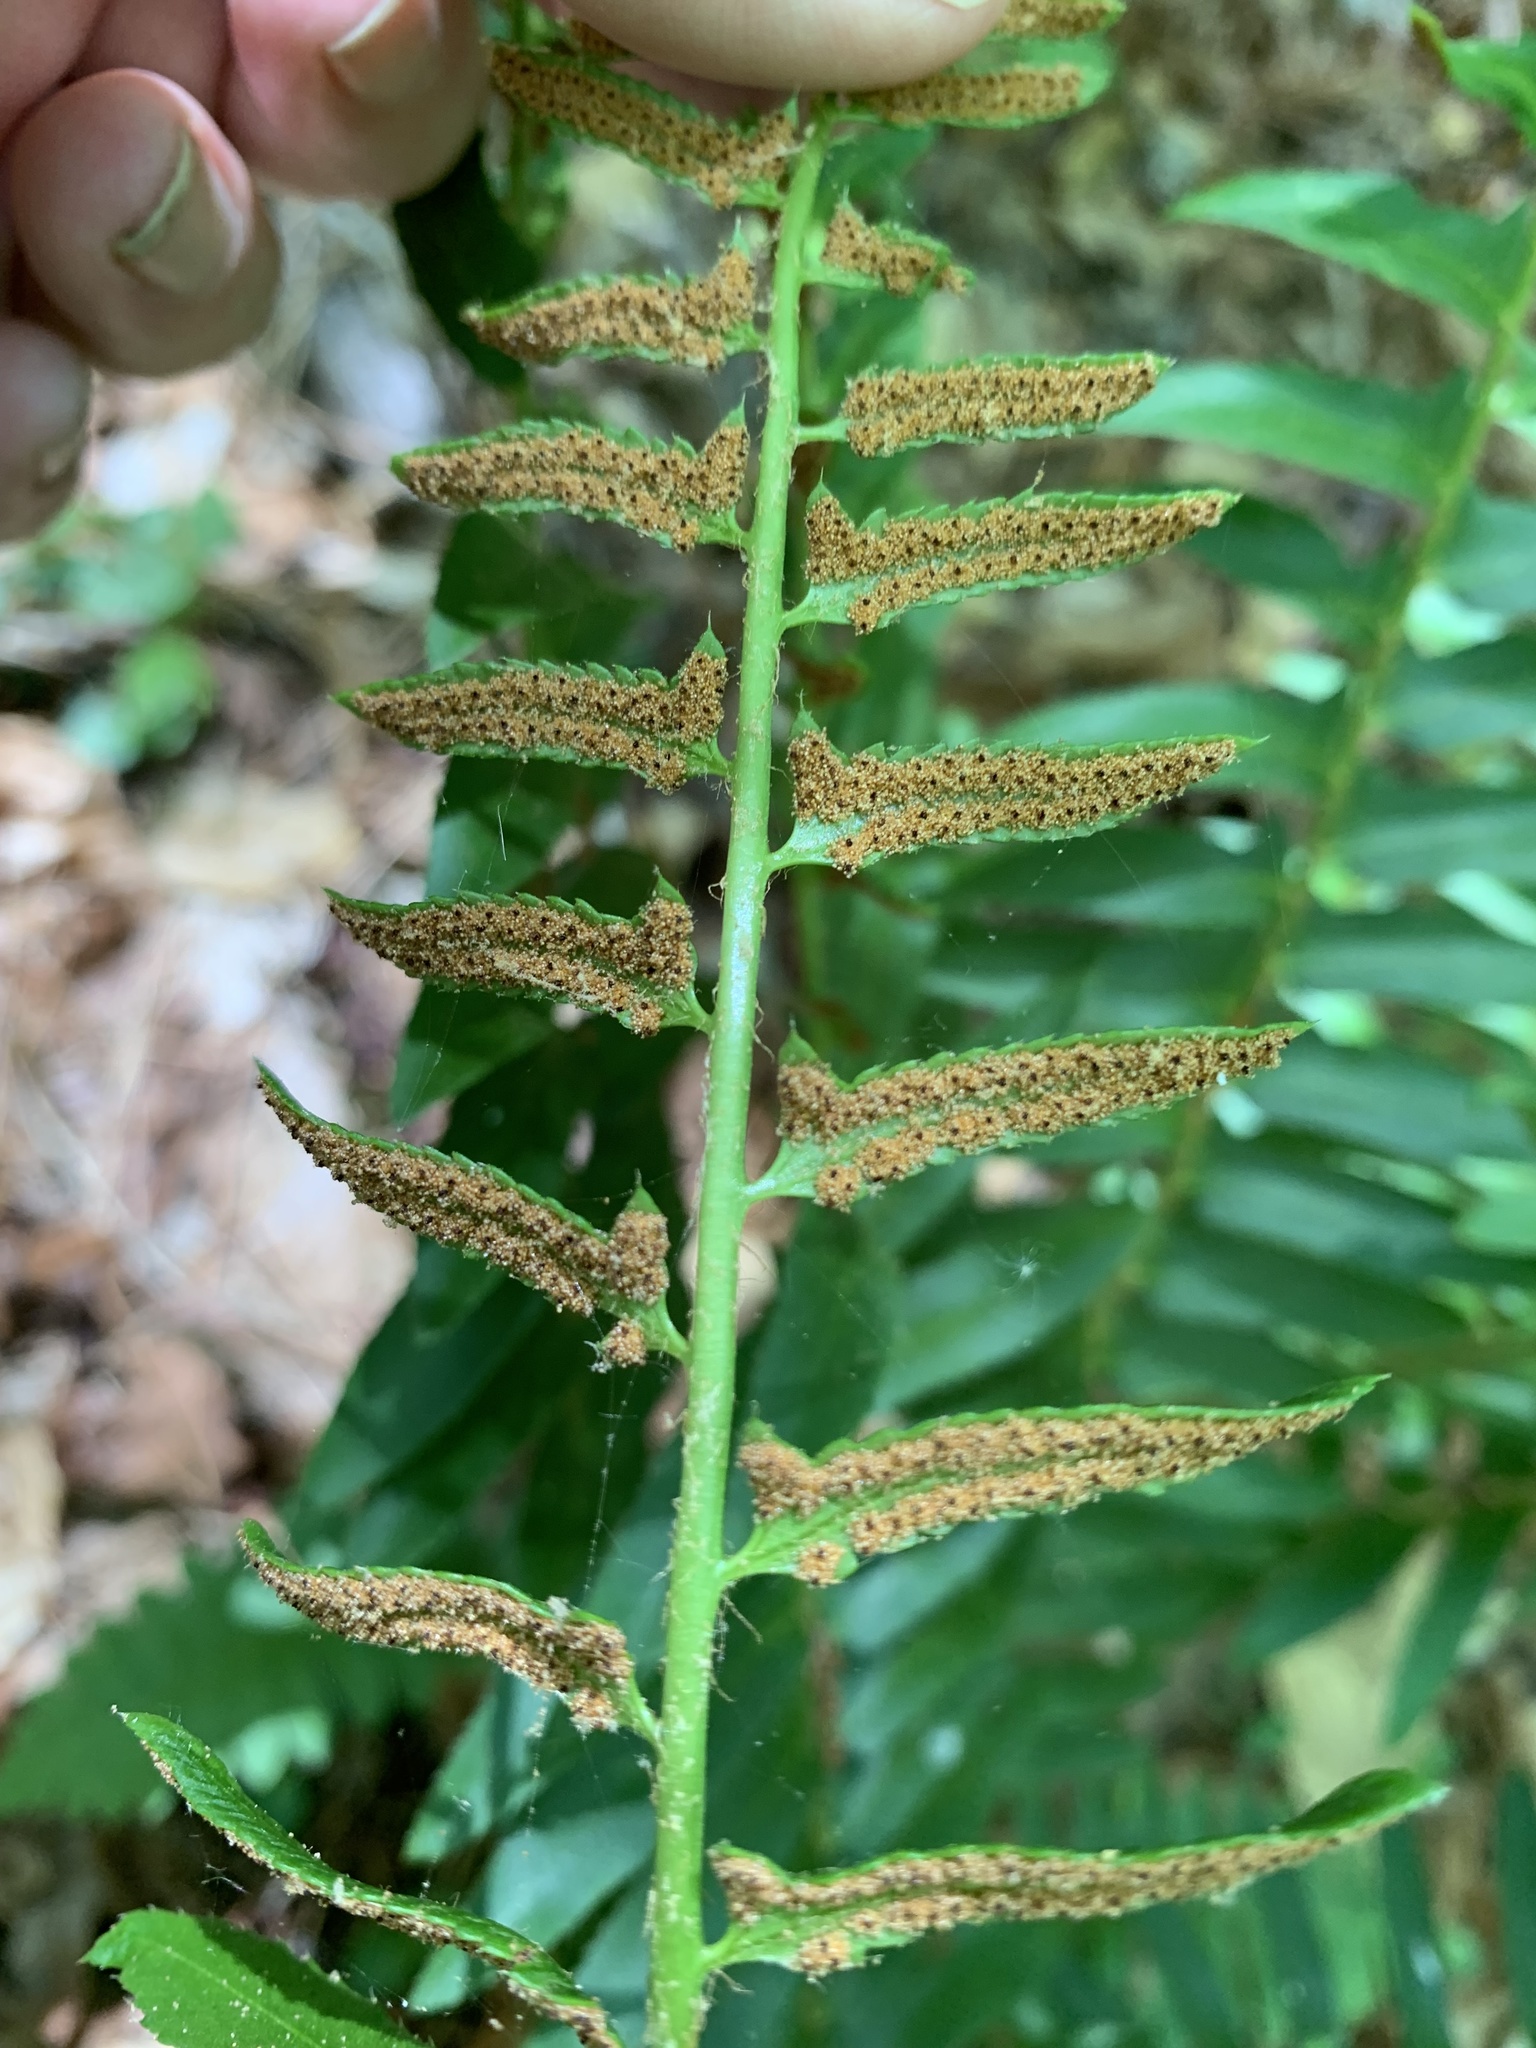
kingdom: Plantae
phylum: Tracheophyta
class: Polypodiopsida
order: Polypodiales
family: Dryopteridaceae
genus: Polystichum
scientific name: Polystichum acrostichoides
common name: Christmas fern
